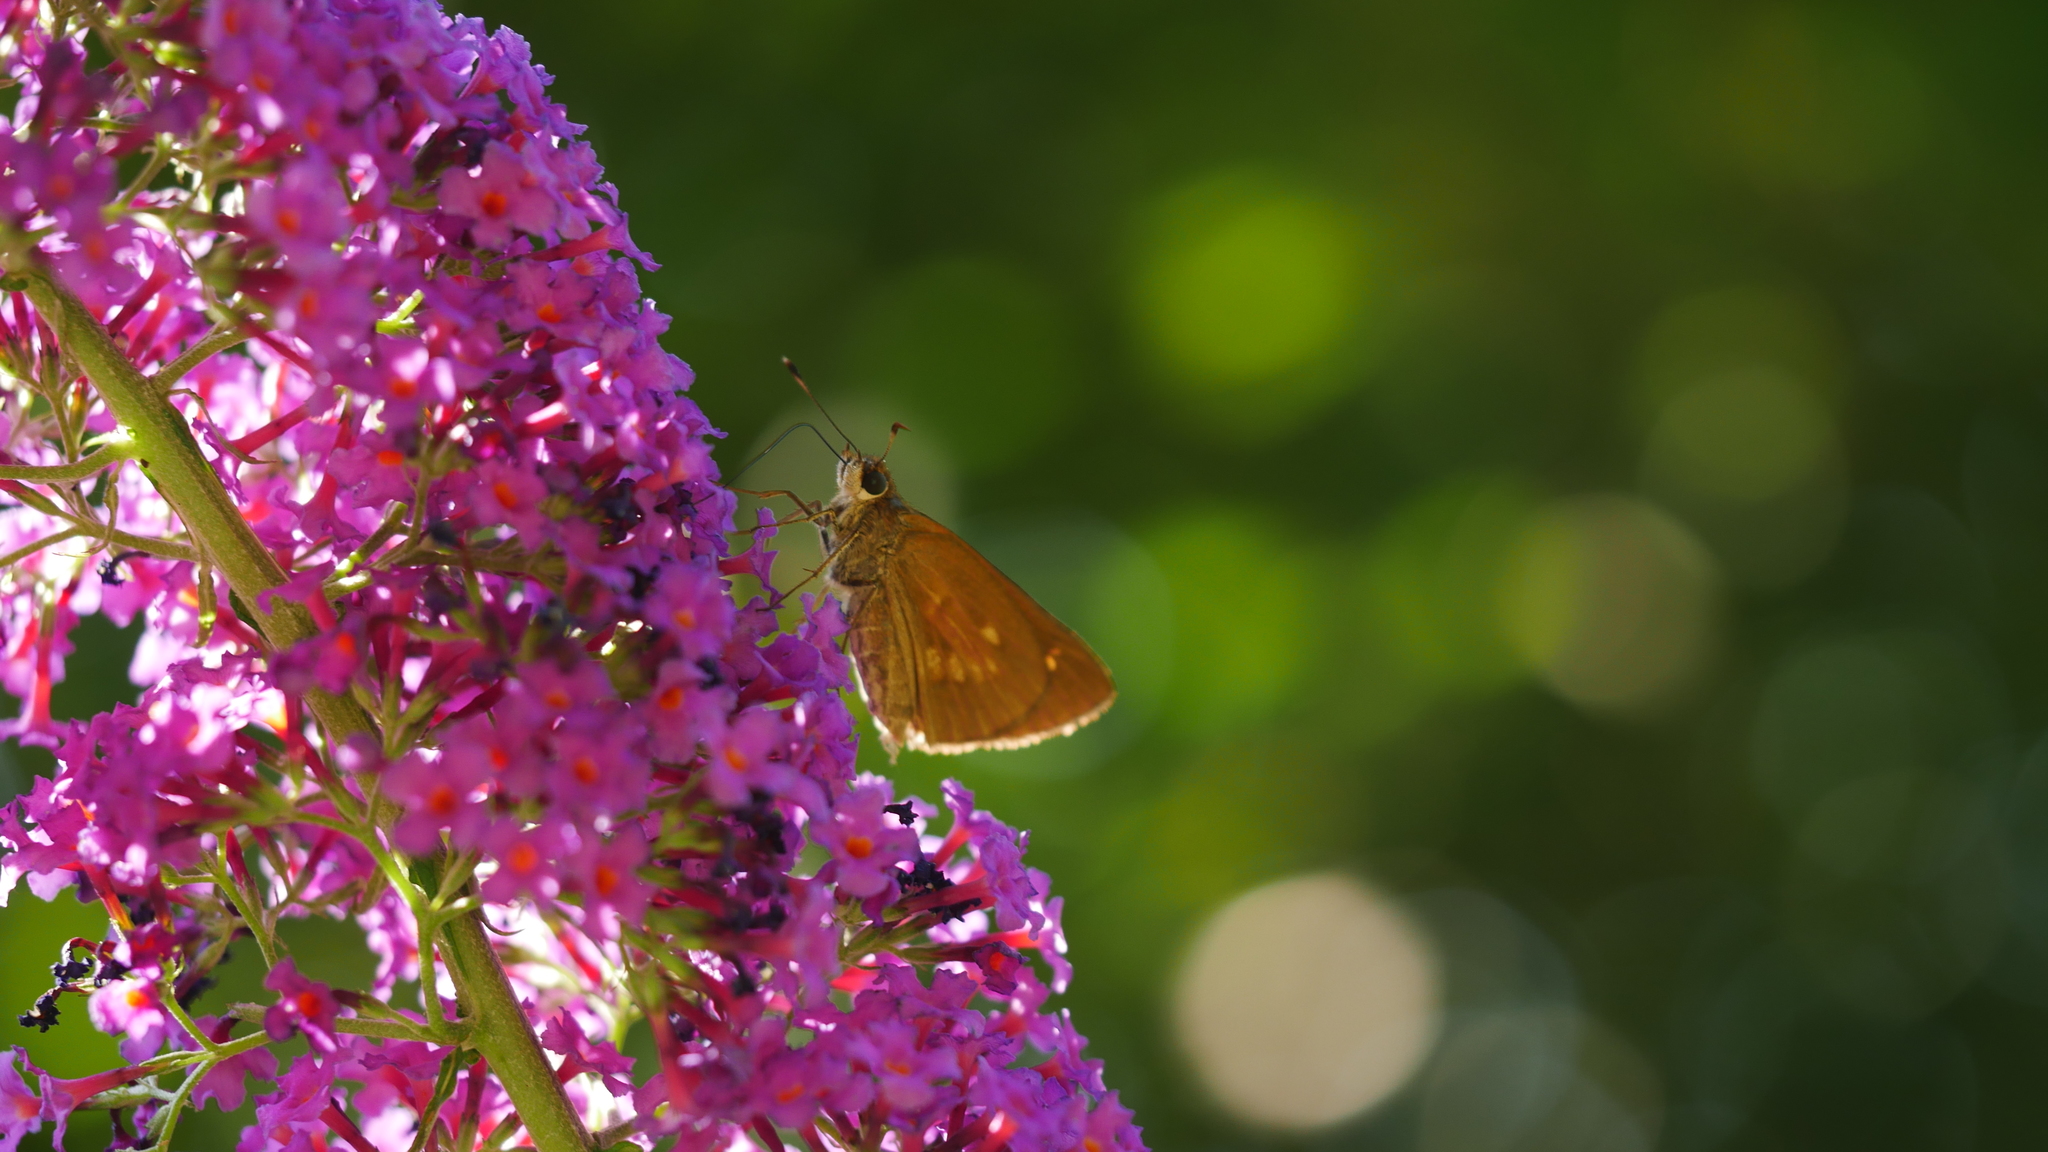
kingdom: Animalia
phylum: Arthropoda
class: Insecta
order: Lepidoptera
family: Hesperiidae
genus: Poanes
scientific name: Poanes viator
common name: Broad-winged skipper
